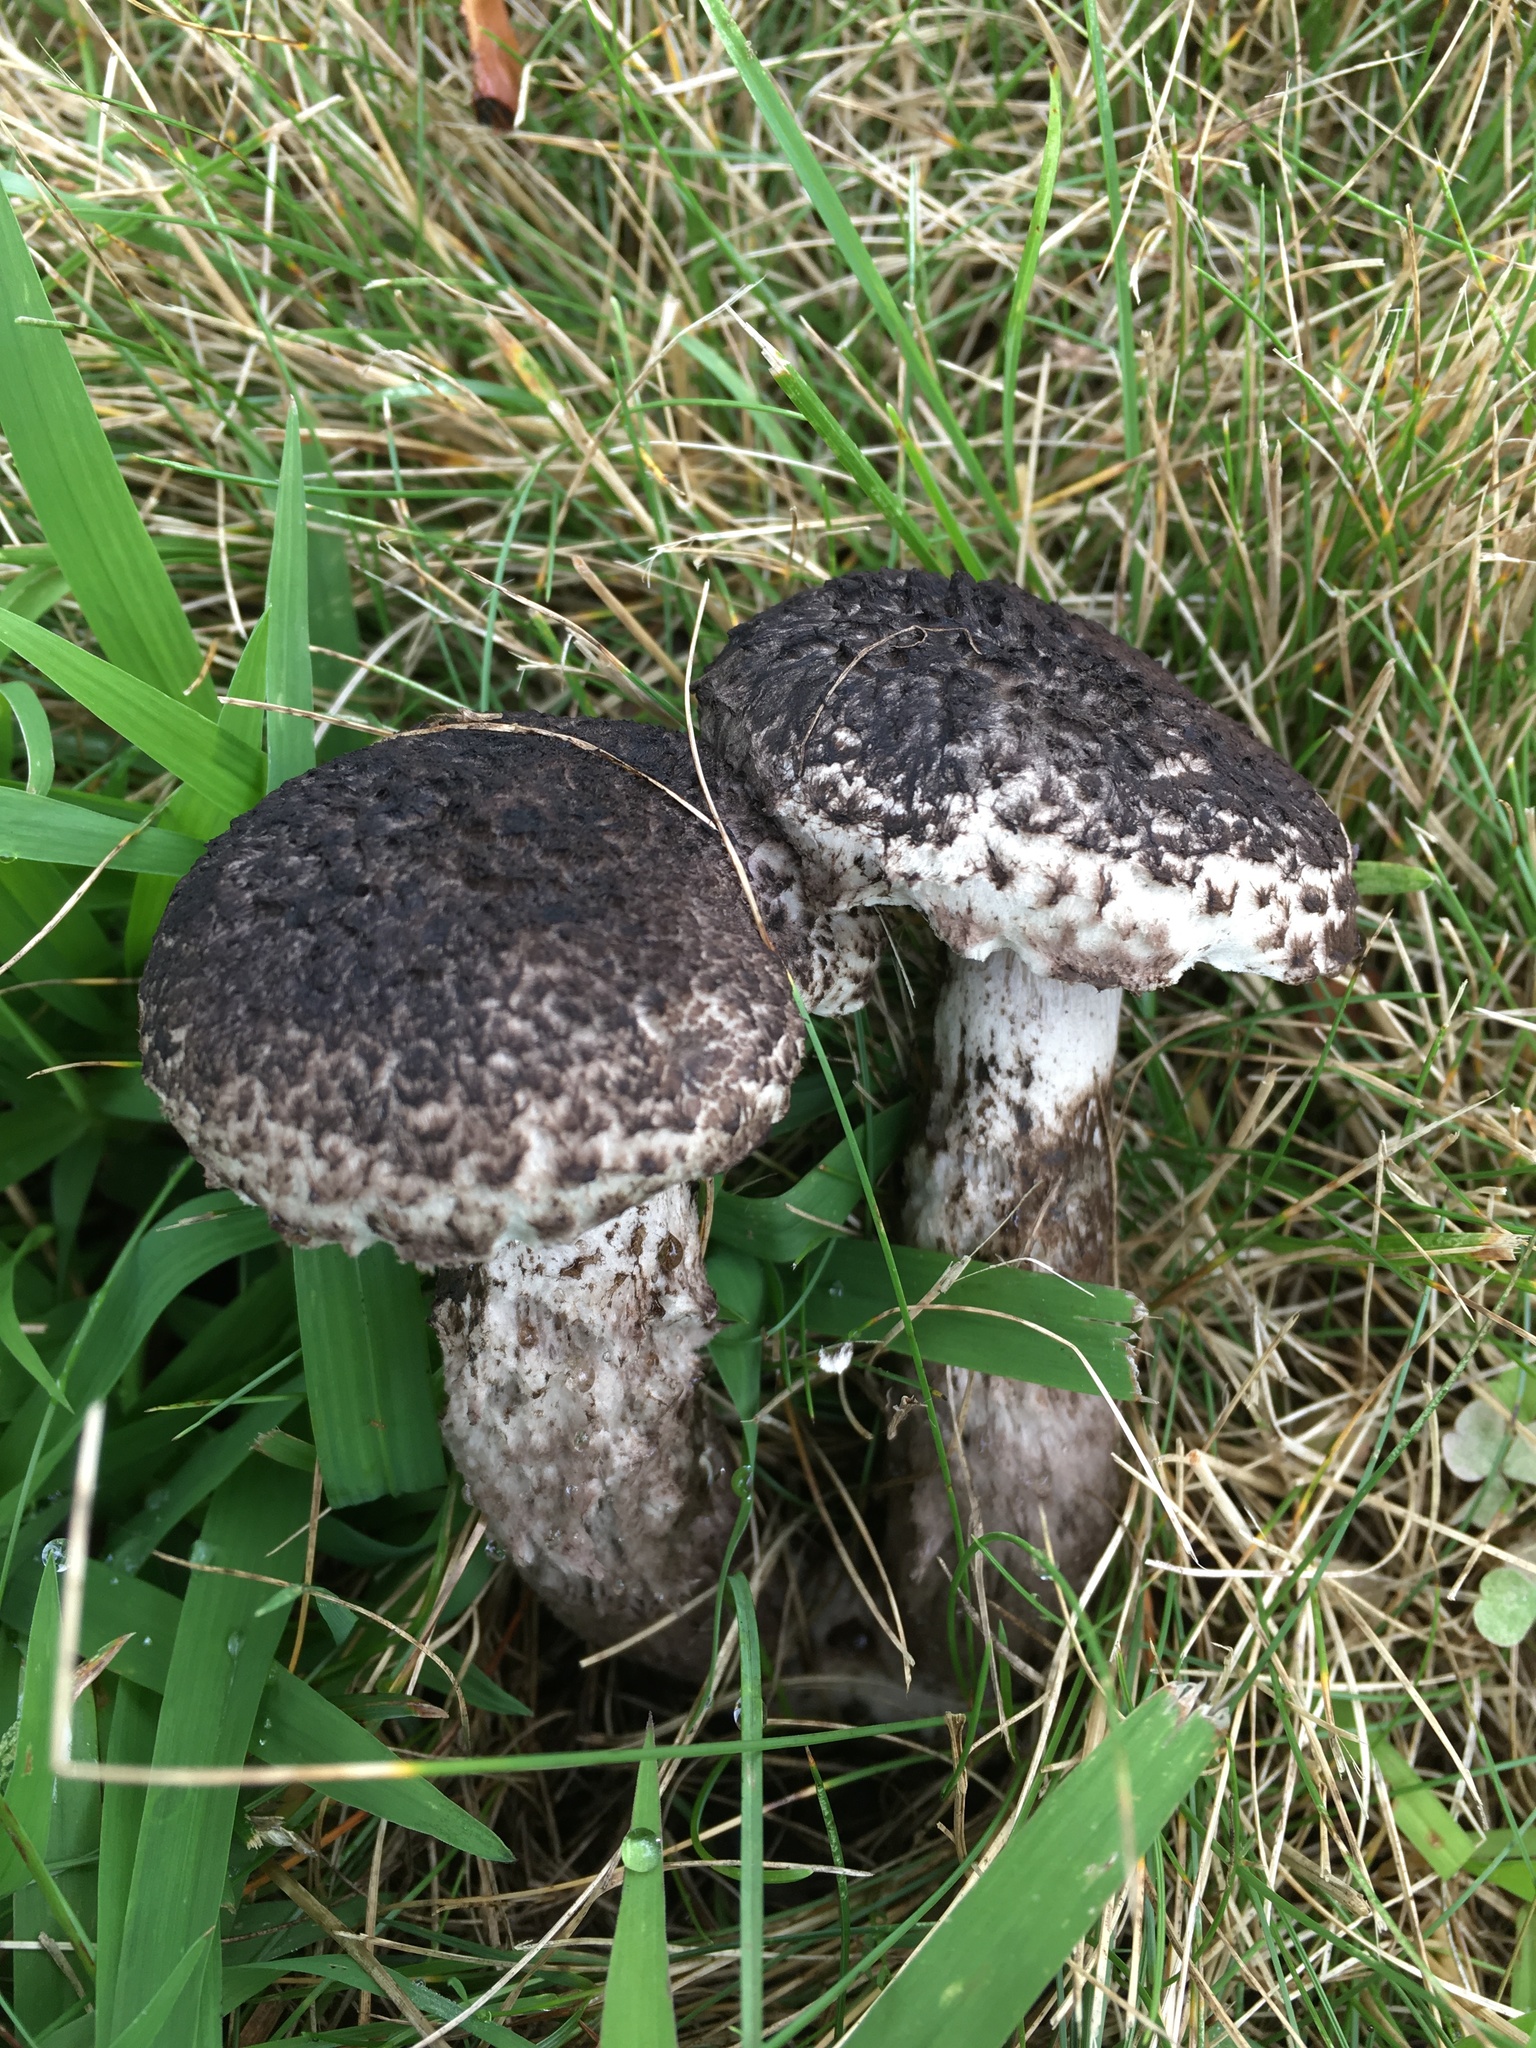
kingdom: Fungi
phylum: Basidiomycota
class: Agaricomycetes
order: Boletales
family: Boletaceae
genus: Strobilomyces
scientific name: Strobilomyces strobilaceus
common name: Old man of the woods
